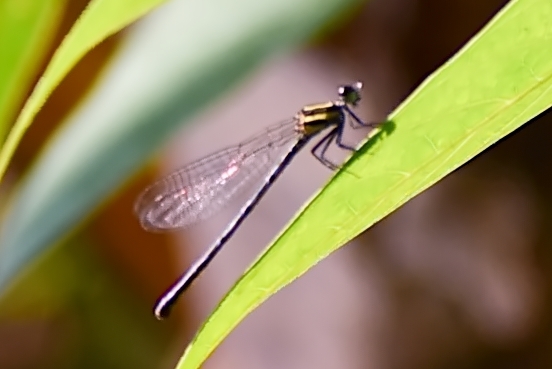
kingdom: Animalia
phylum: Arthropoda
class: Insecta
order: Odonata
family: Platycnemididae
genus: Onychargia
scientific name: Onychargia atrocyana
